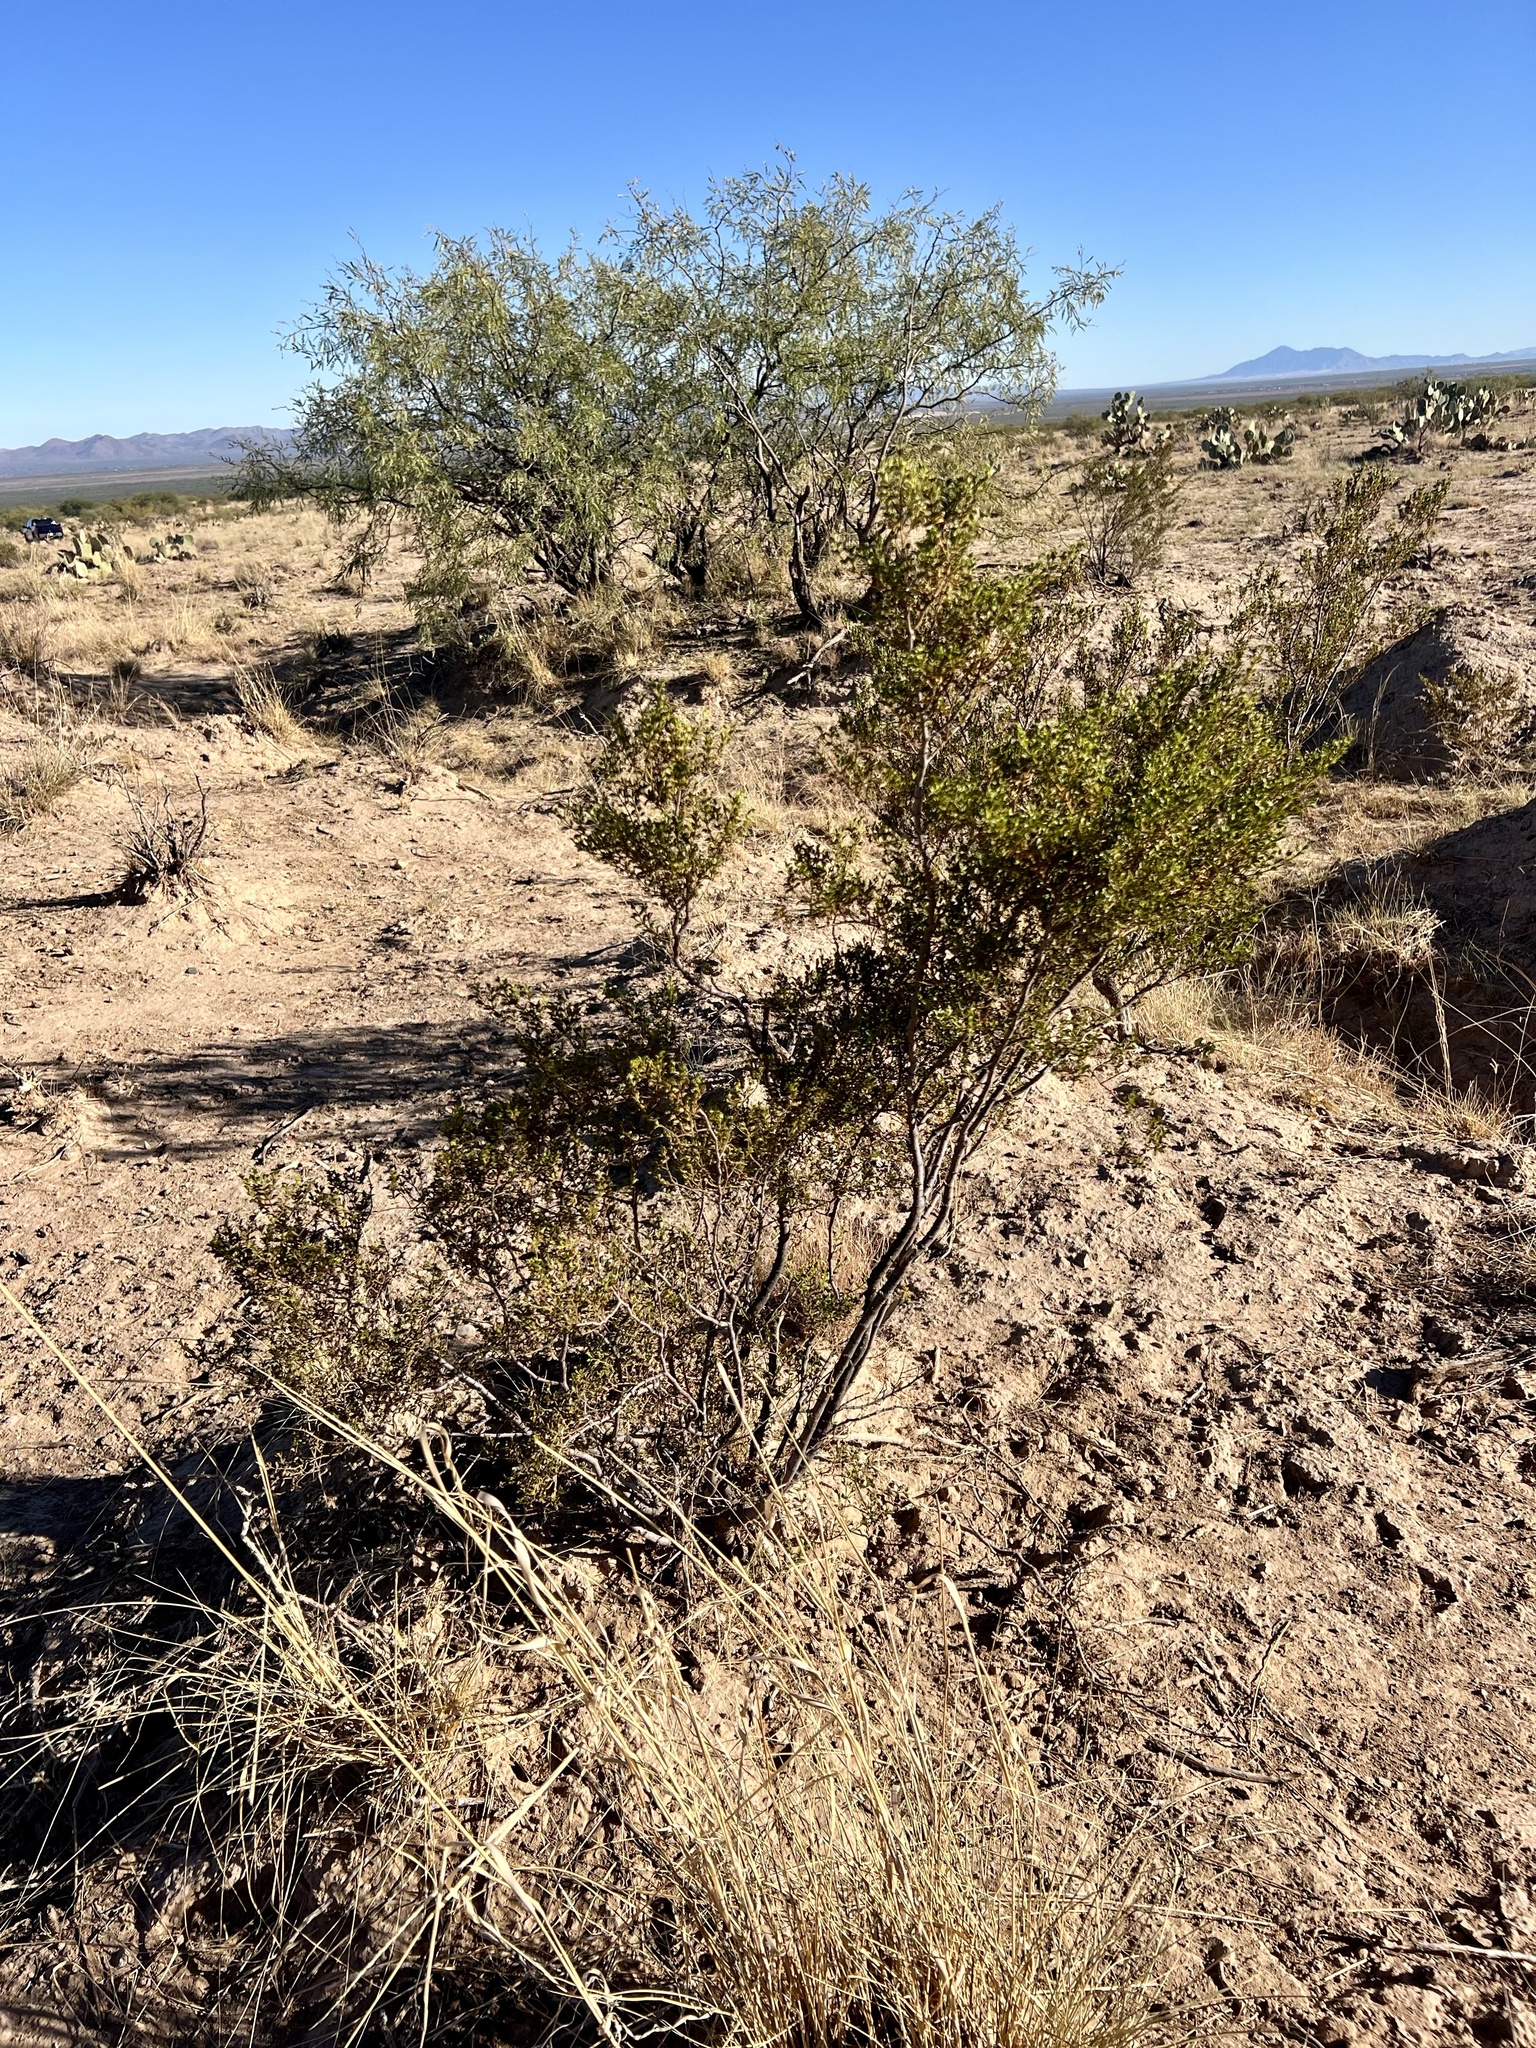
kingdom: Plantae
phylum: Tracheophyta
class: Magnoliopsida
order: Zygophyllales
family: Zygophyllaceae
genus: Larrea
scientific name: Larrea tridentata
